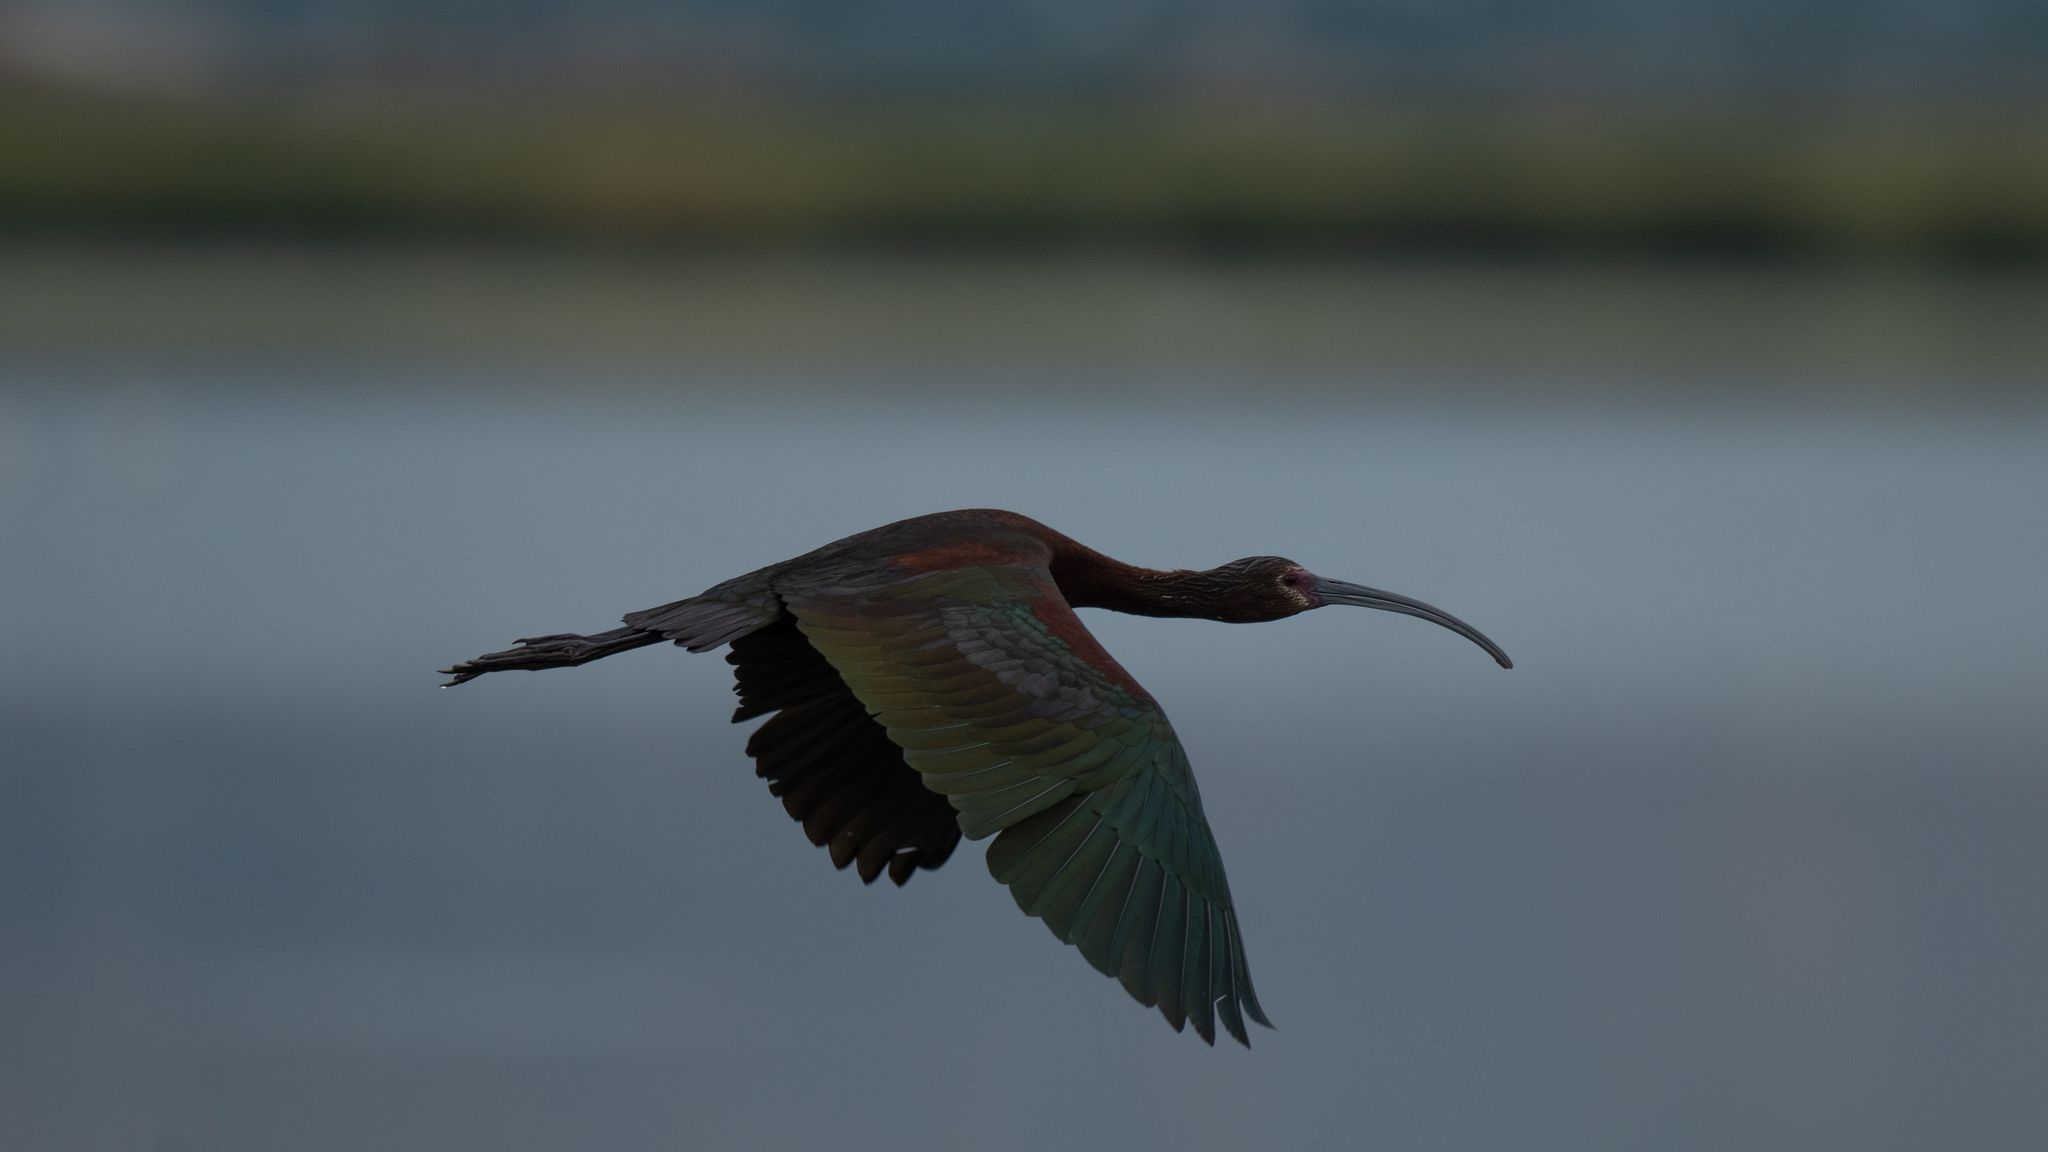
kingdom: Animalia
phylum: Chordata
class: Aves
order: Pelecaniformes
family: Threskiornithidae
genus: Plegadis
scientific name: Plegadis chihi
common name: White-faced ibis
